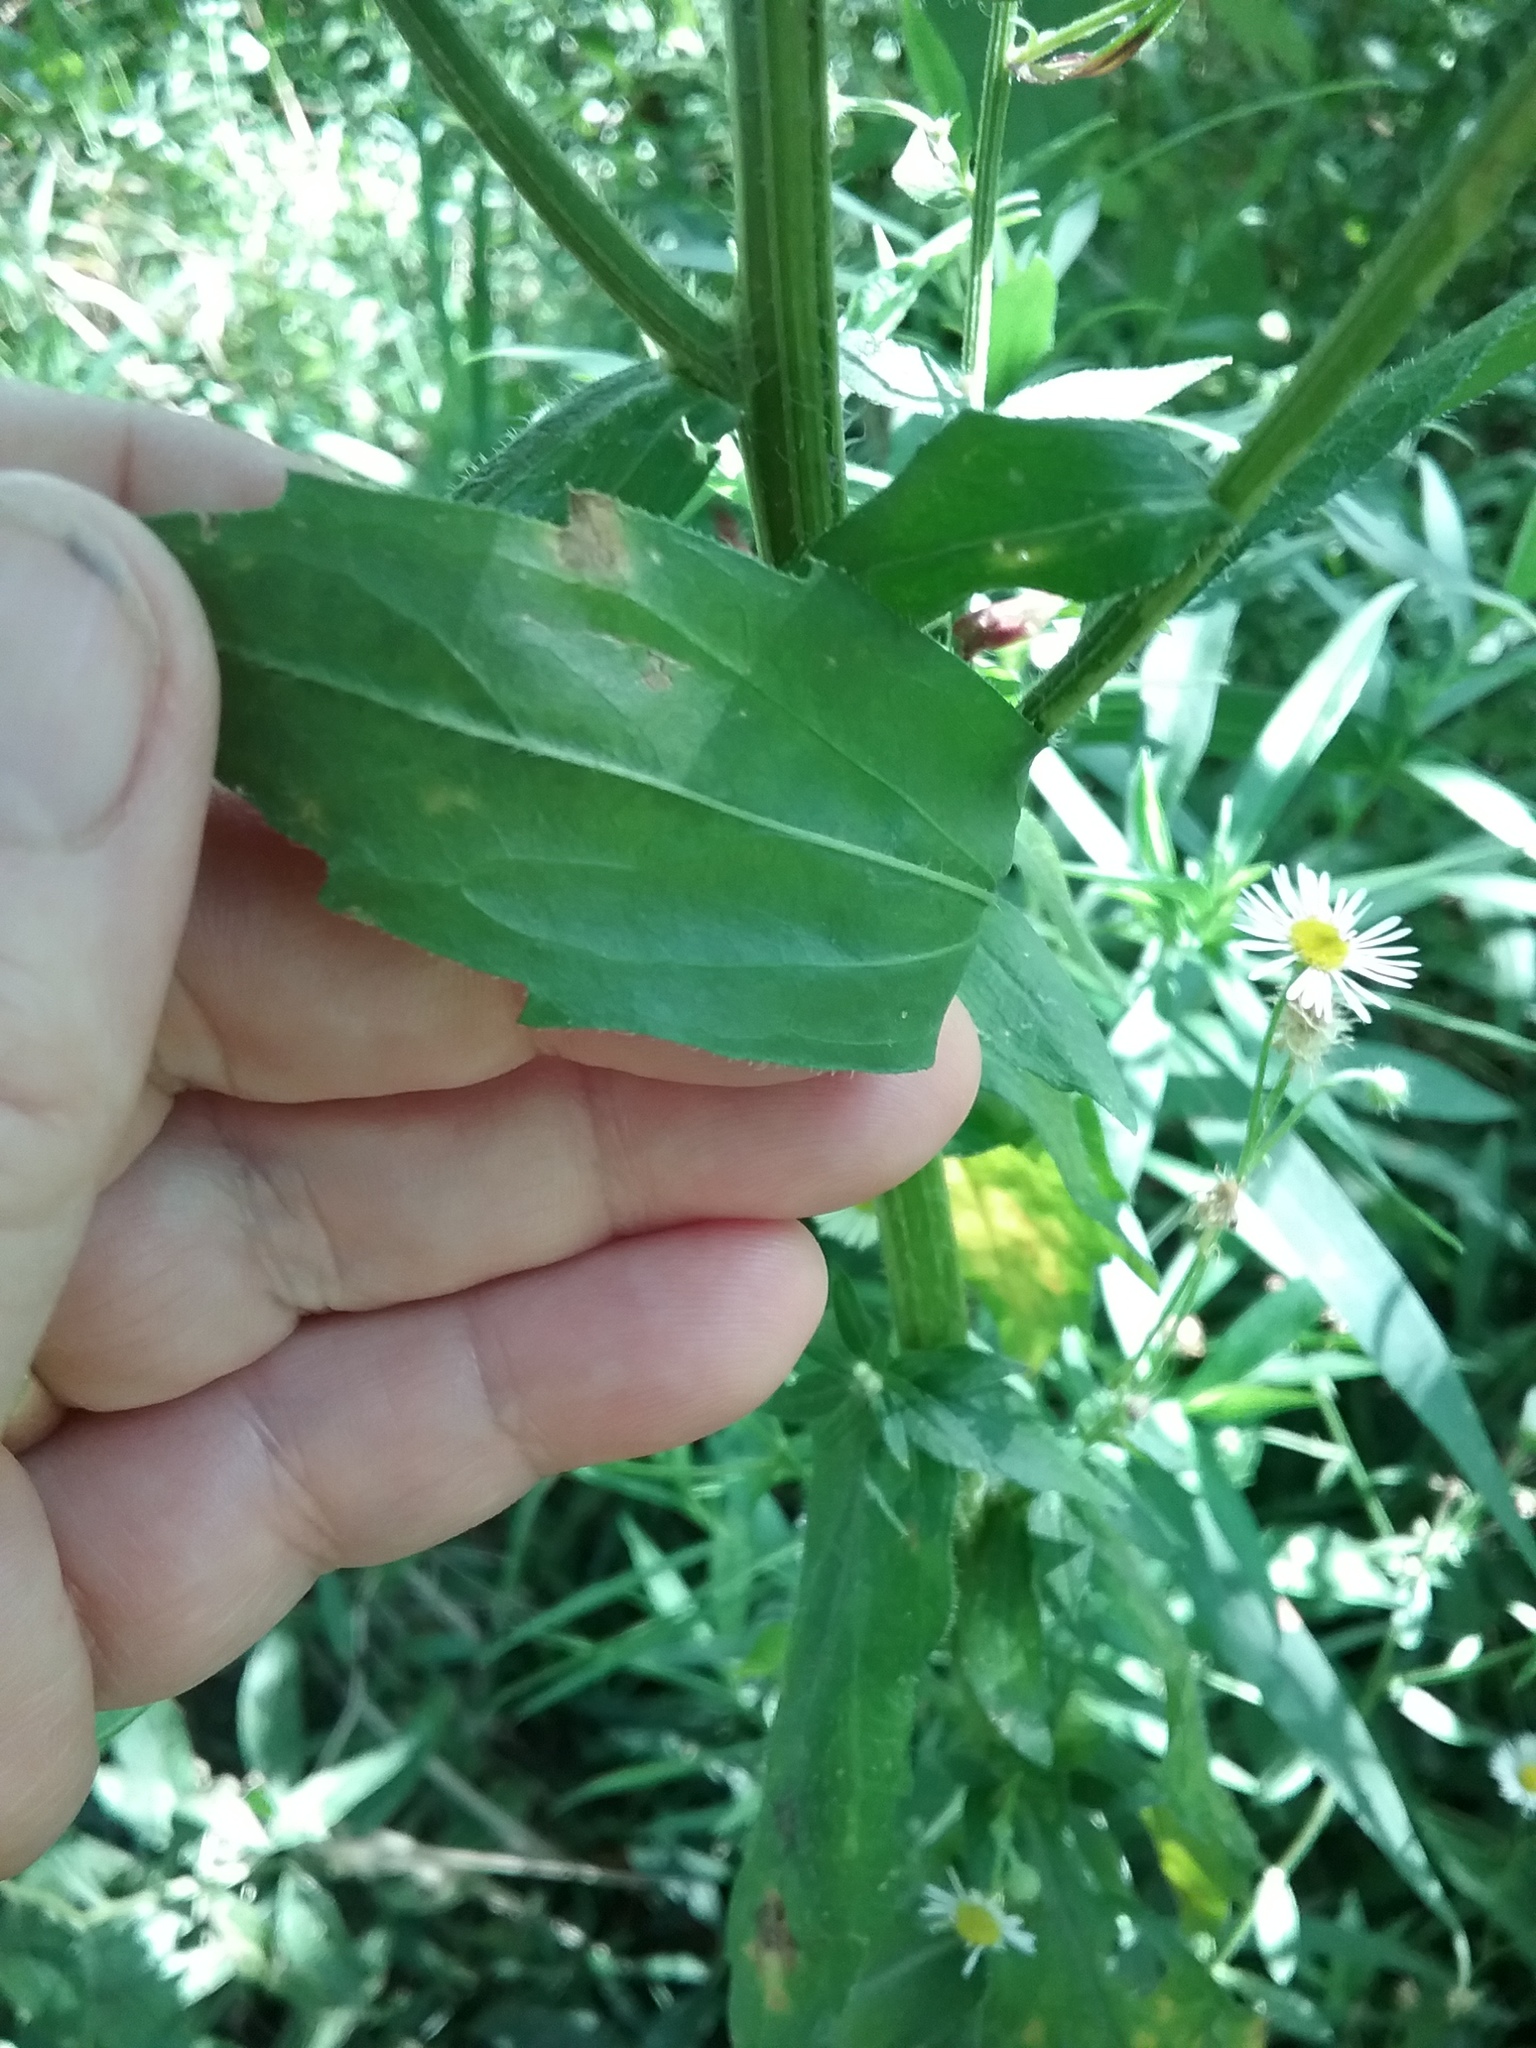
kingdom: Plantae
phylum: Tracheophyta
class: Magnoliopsida
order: Asterales
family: Asteraceae
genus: Erigeron
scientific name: Erigeron annuus
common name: Tall fleabane
